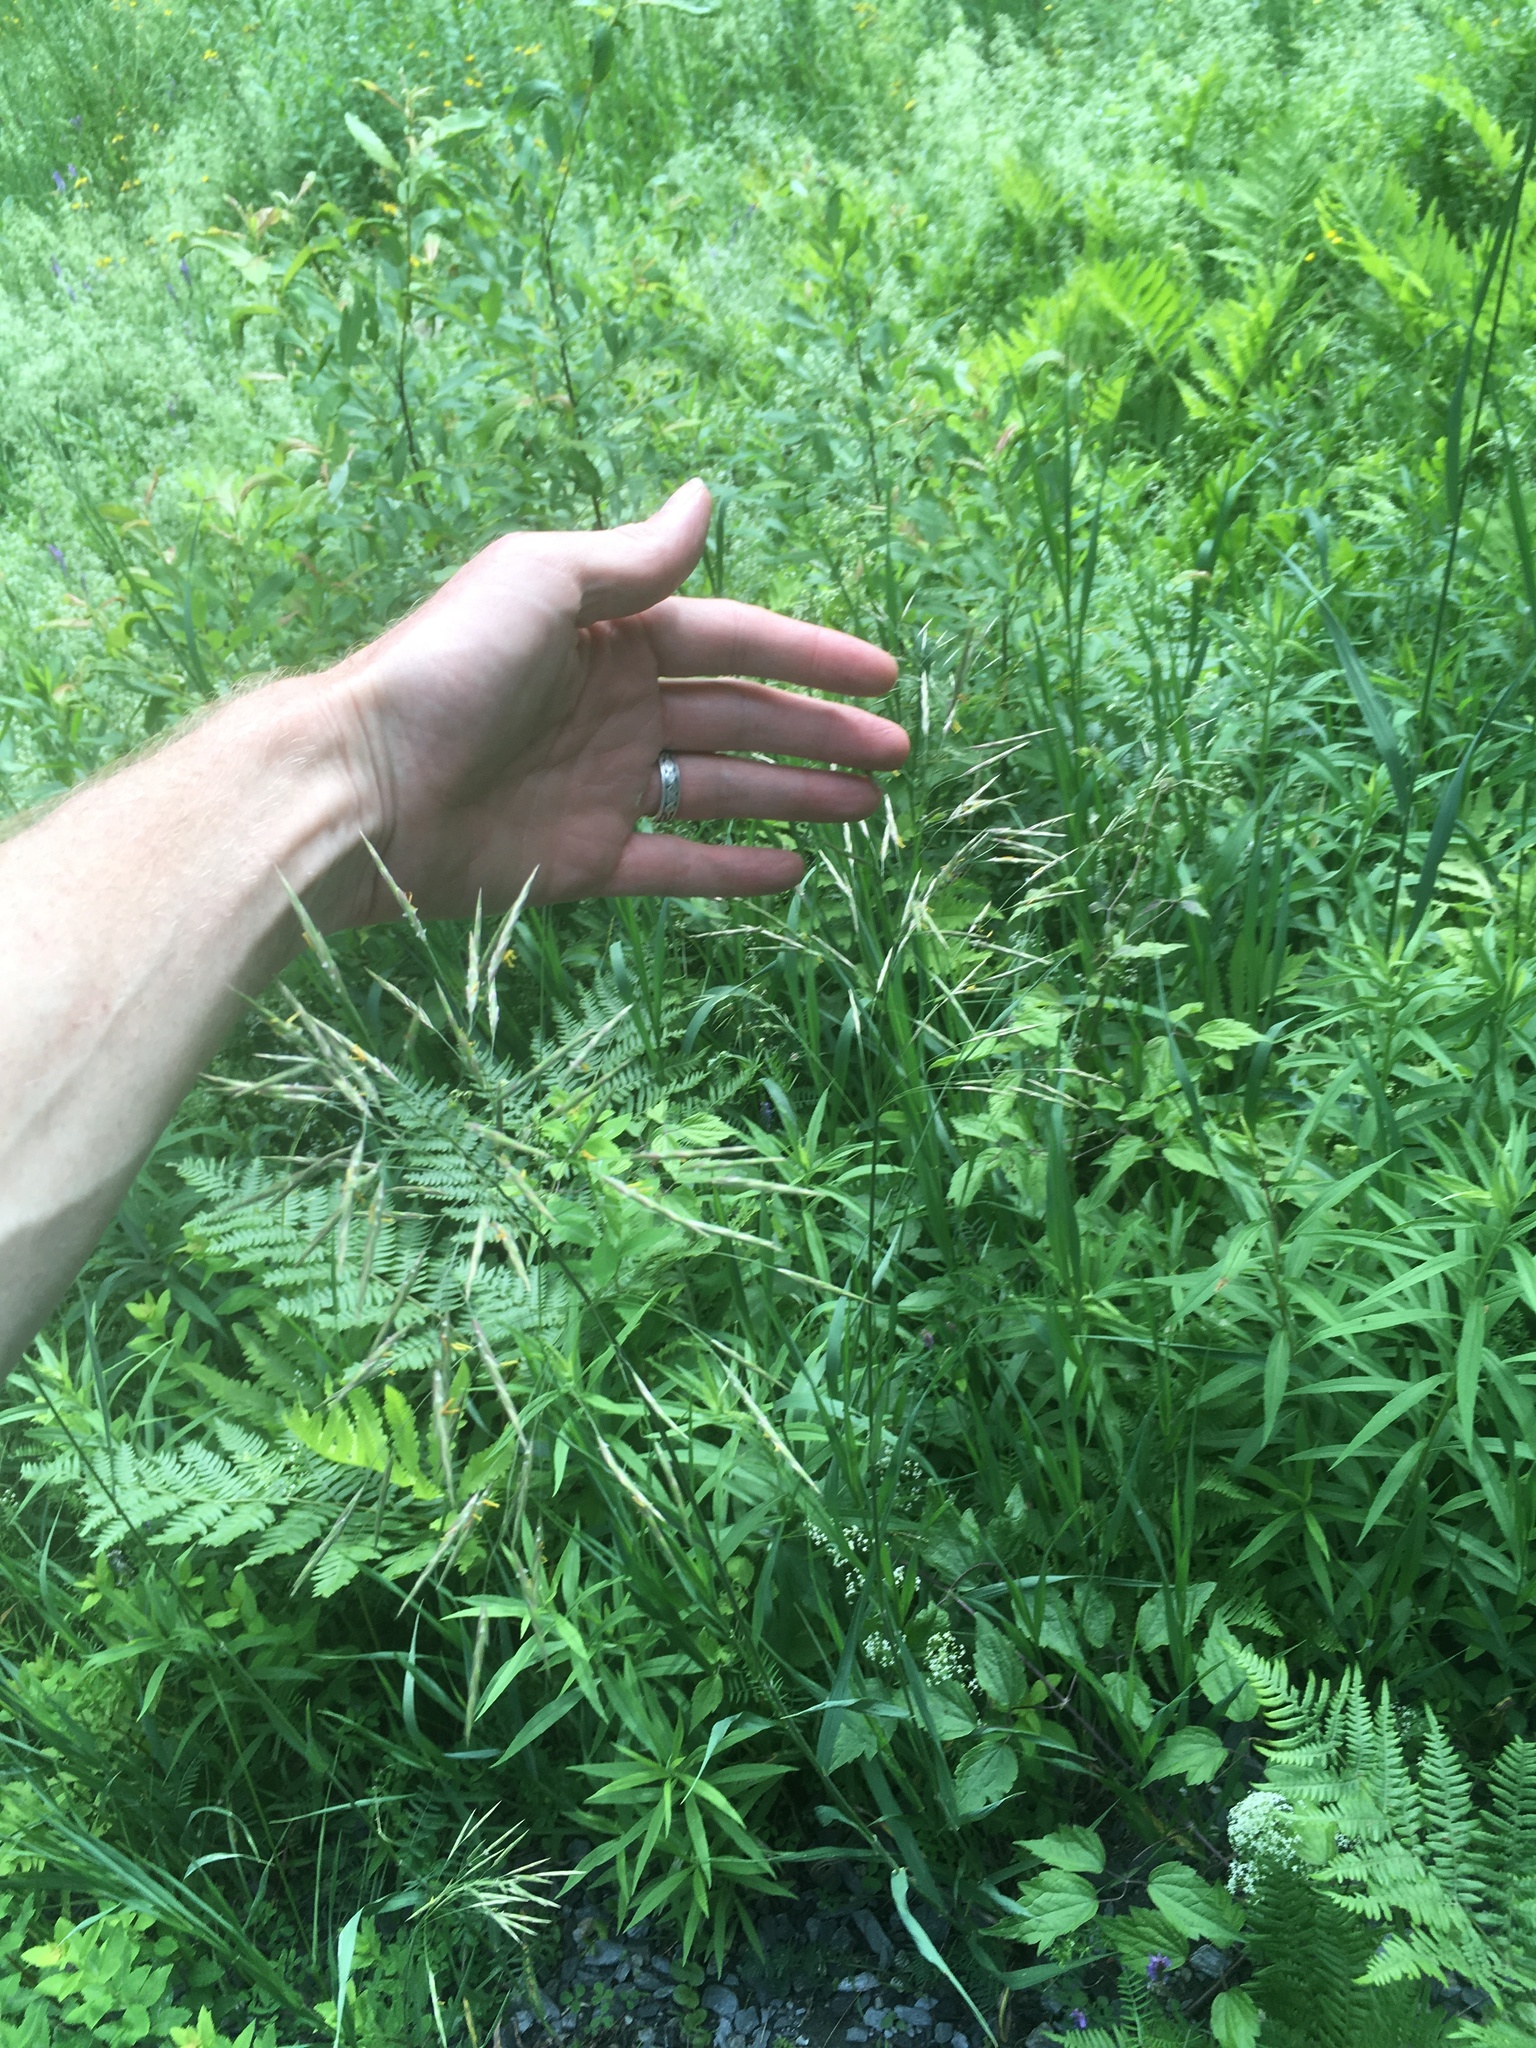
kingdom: Plantae
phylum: Tracheophyta
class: Liliopsida
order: Poales
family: Poaceae
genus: Bromus
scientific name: Bromus inermis
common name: Smooth brome
